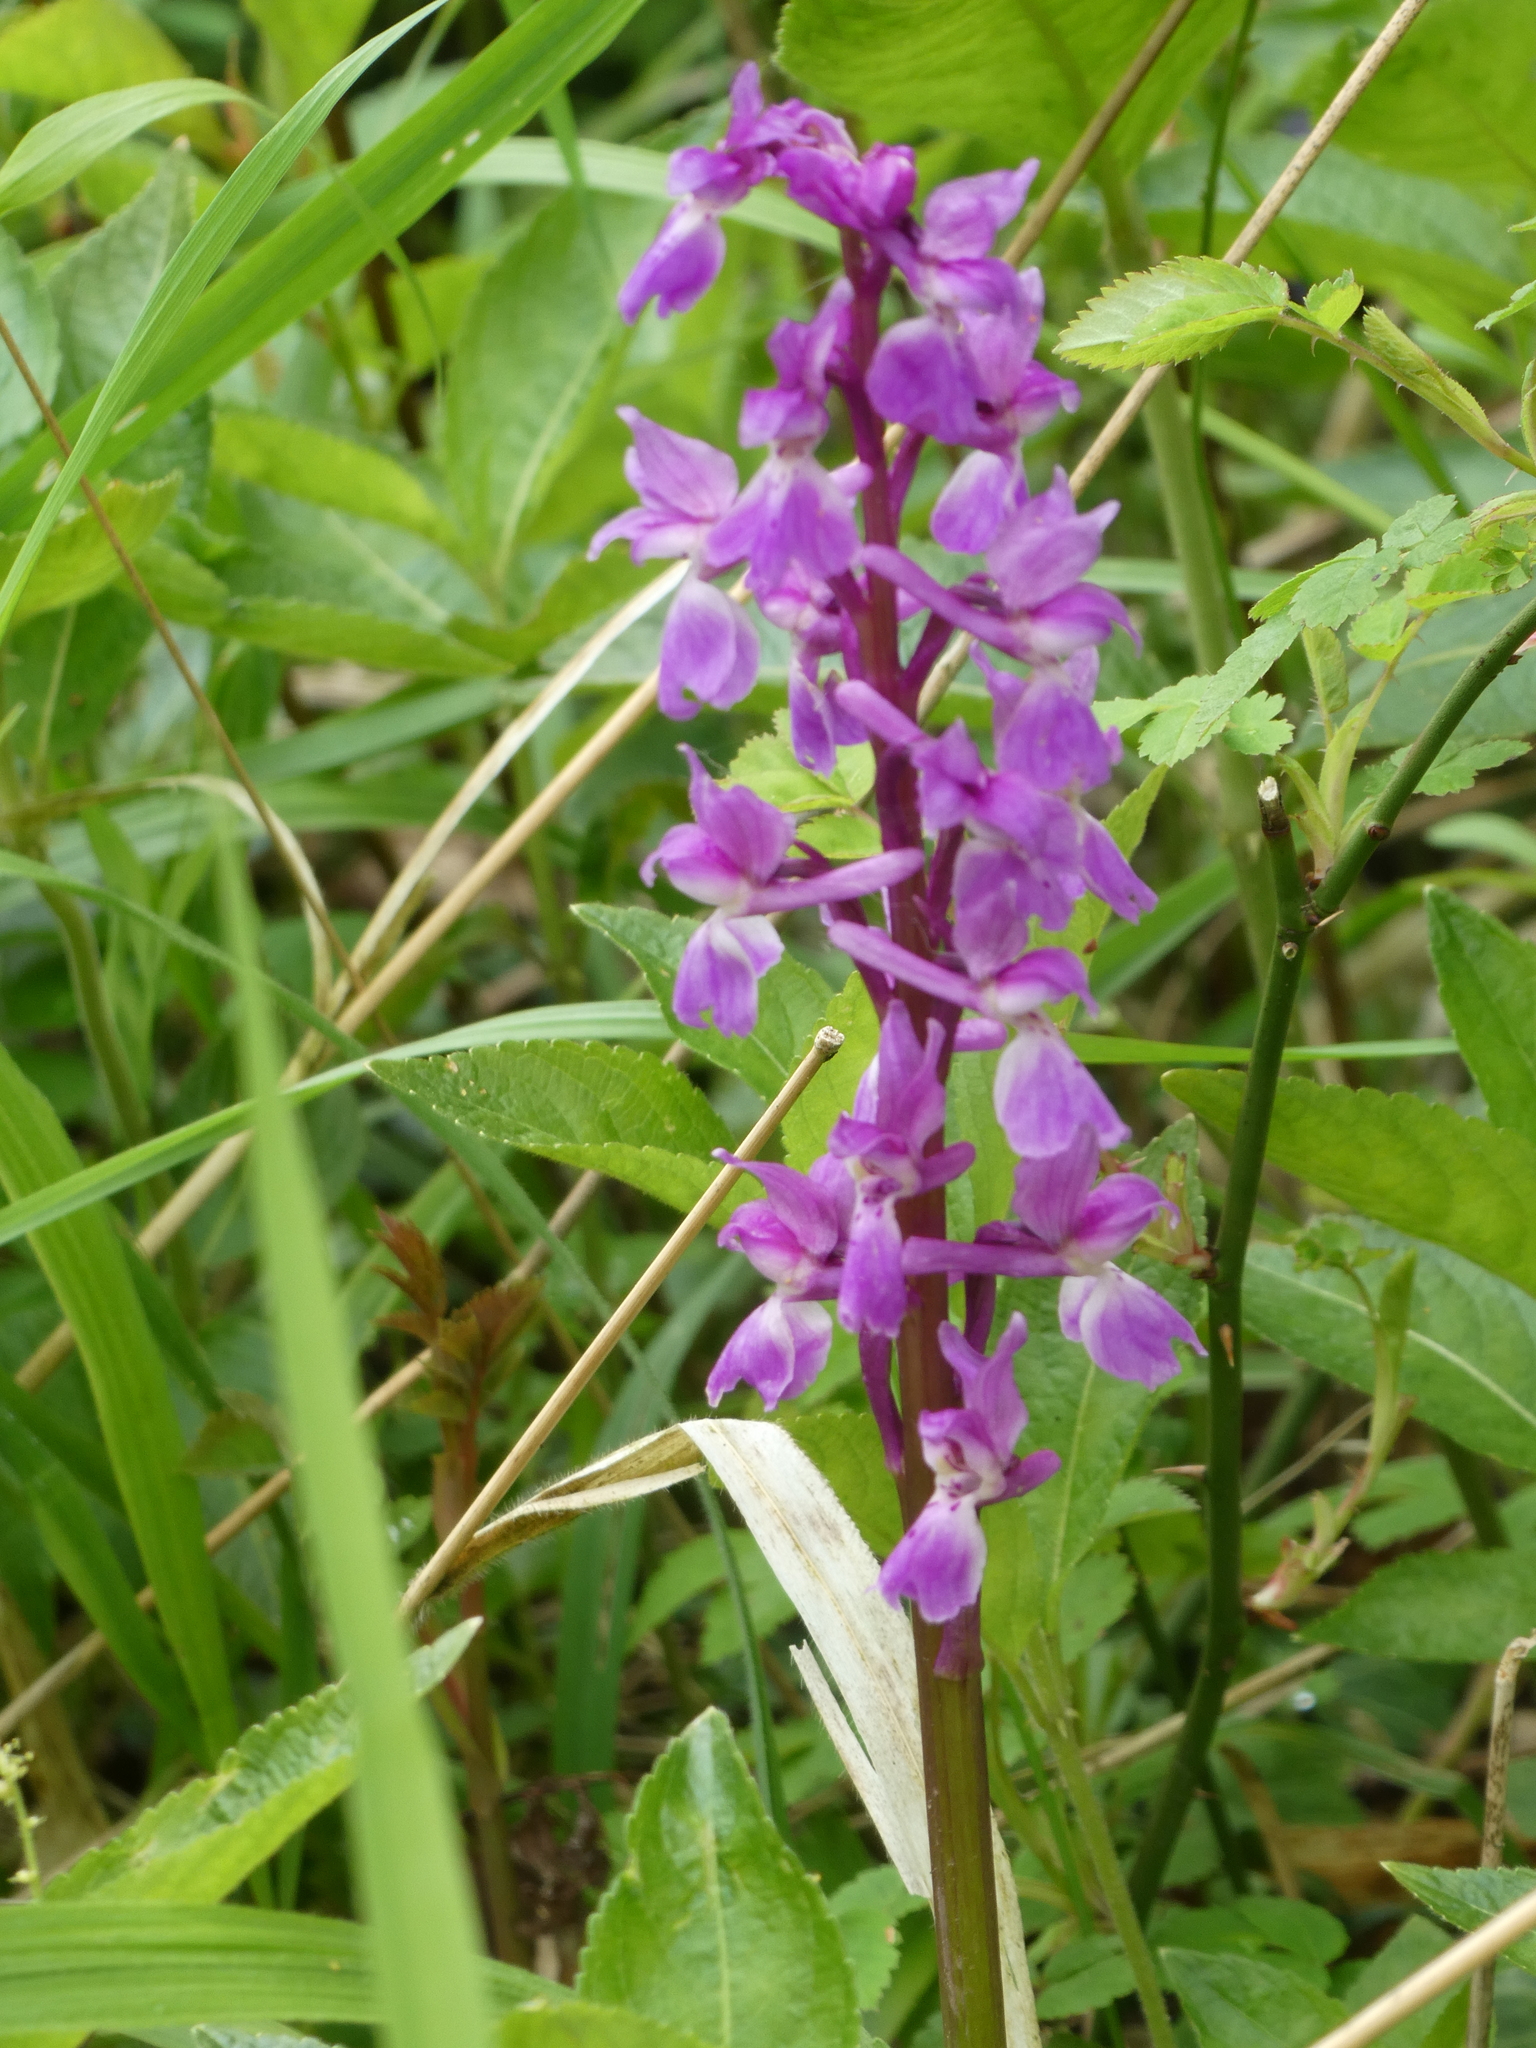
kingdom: Plantae
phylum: Tracheophyta
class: Liliopsida
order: Asparagales
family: Orchidaceae
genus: Orchis
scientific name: Orchis mascula
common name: Early-purple orchid
